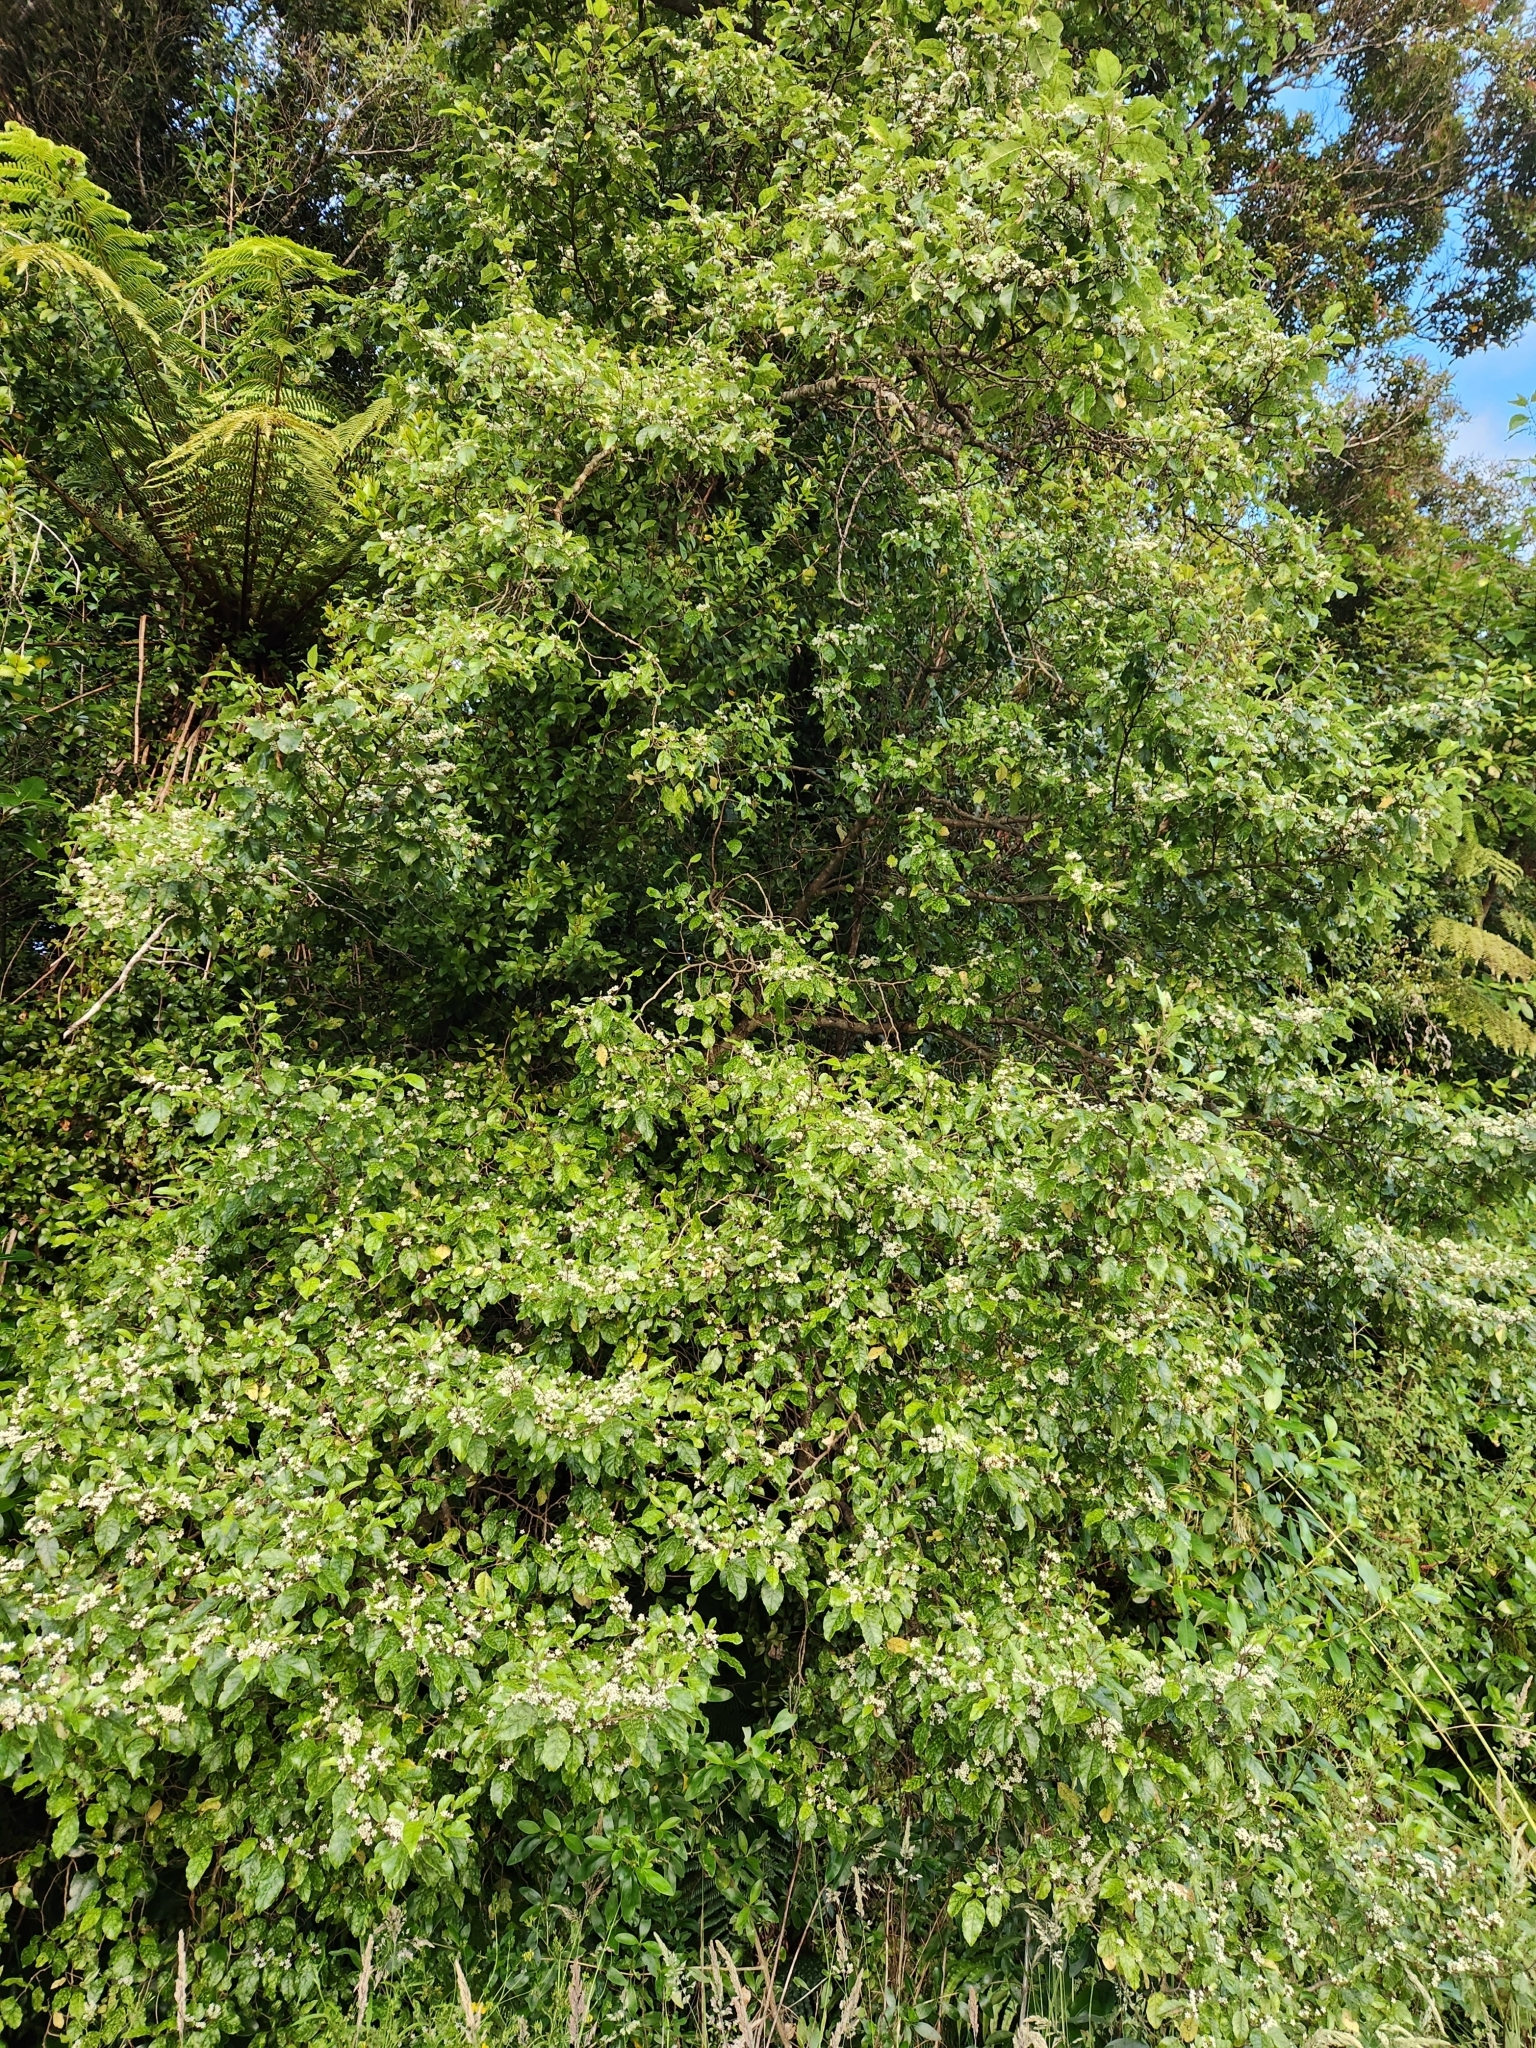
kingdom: Plantae
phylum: Tracheophyta
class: Magnoliopsida
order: Asterales
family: Rousseaceae
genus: Carpodetus
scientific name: Carpodetus serratus
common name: White mapau
